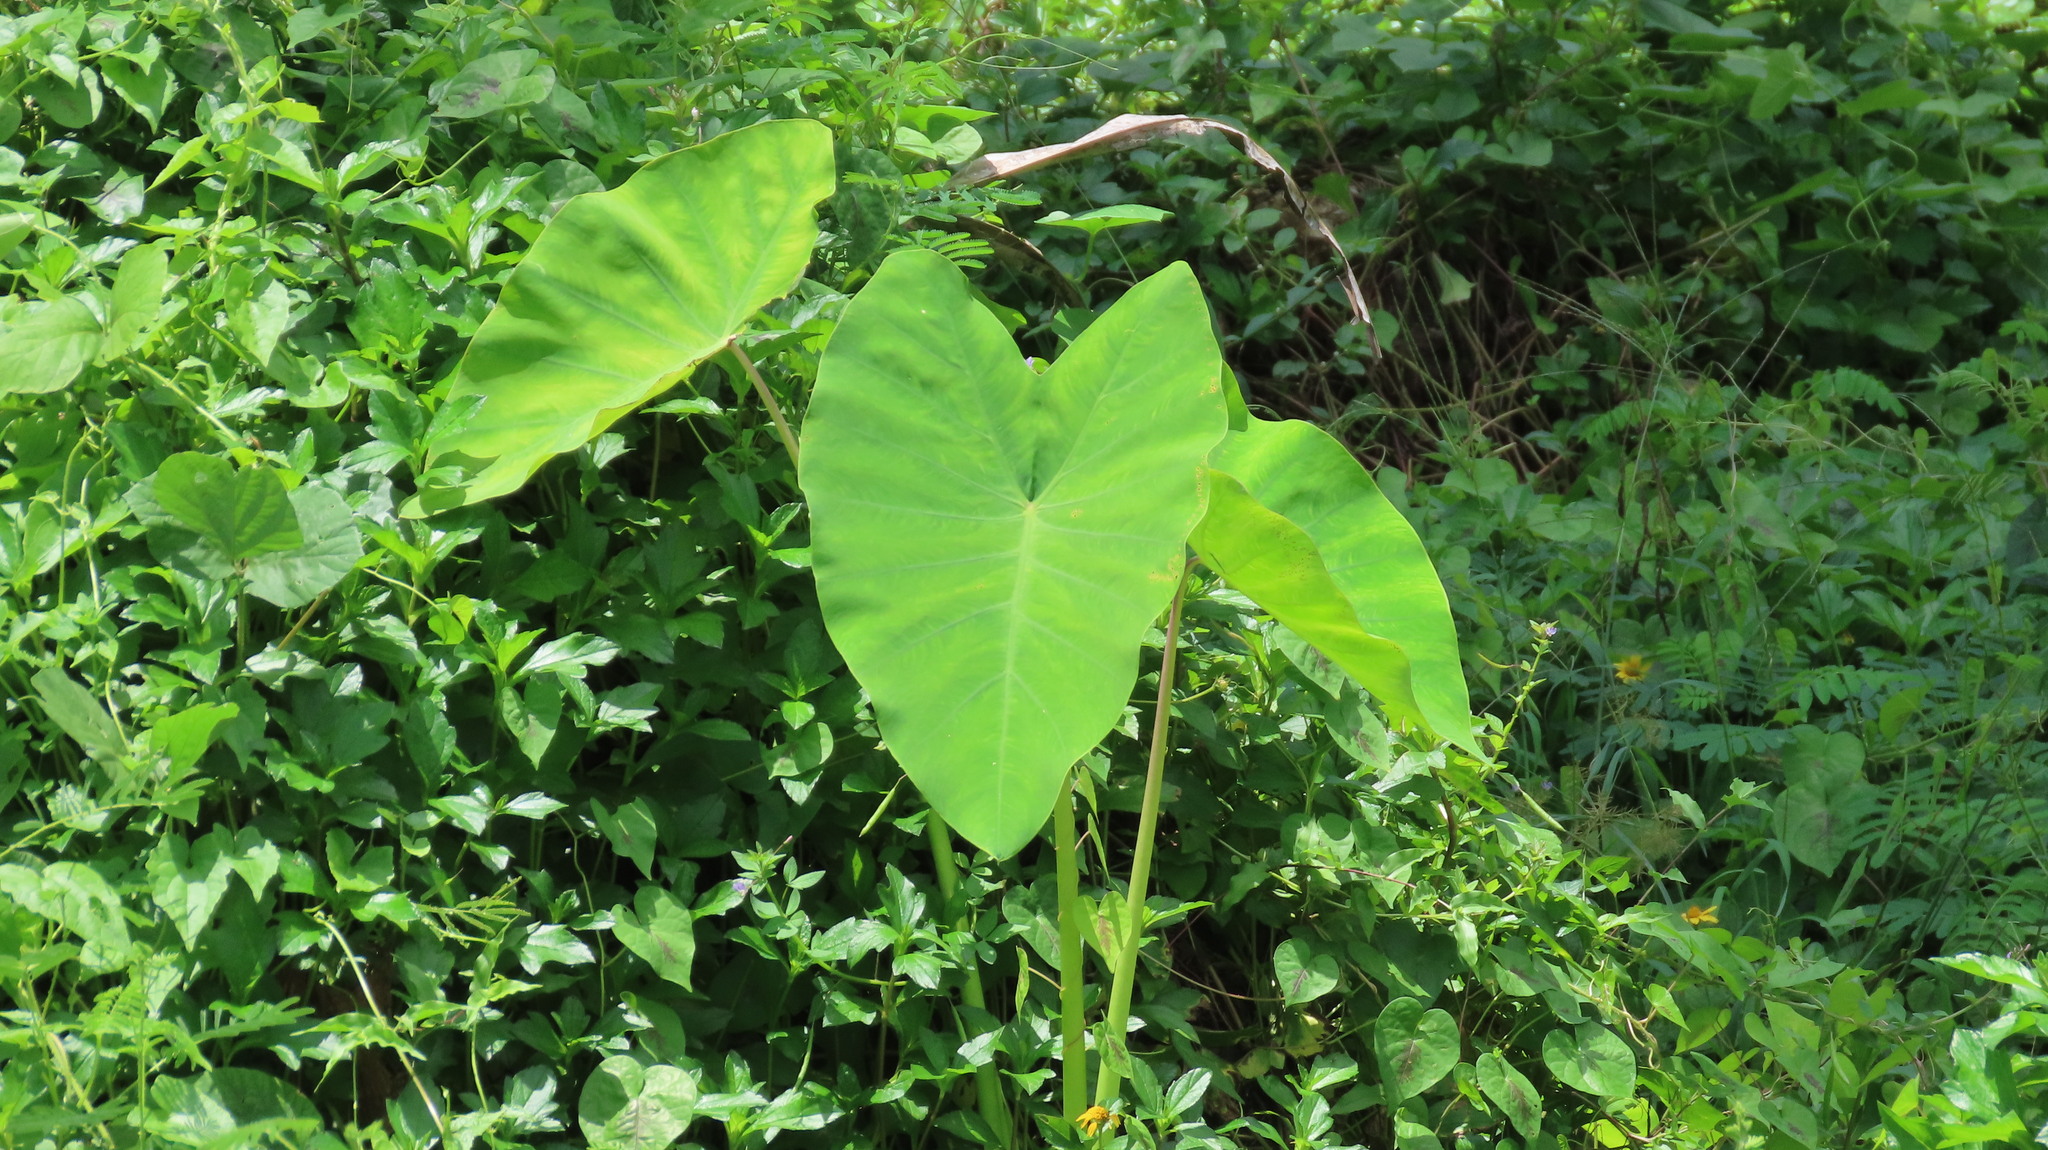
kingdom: Plantae
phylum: Tracheophyta
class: Liliopsida
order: Alismatales
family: Araceae
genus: Colocasia
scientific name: Colocasia esculenta
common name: Taro
